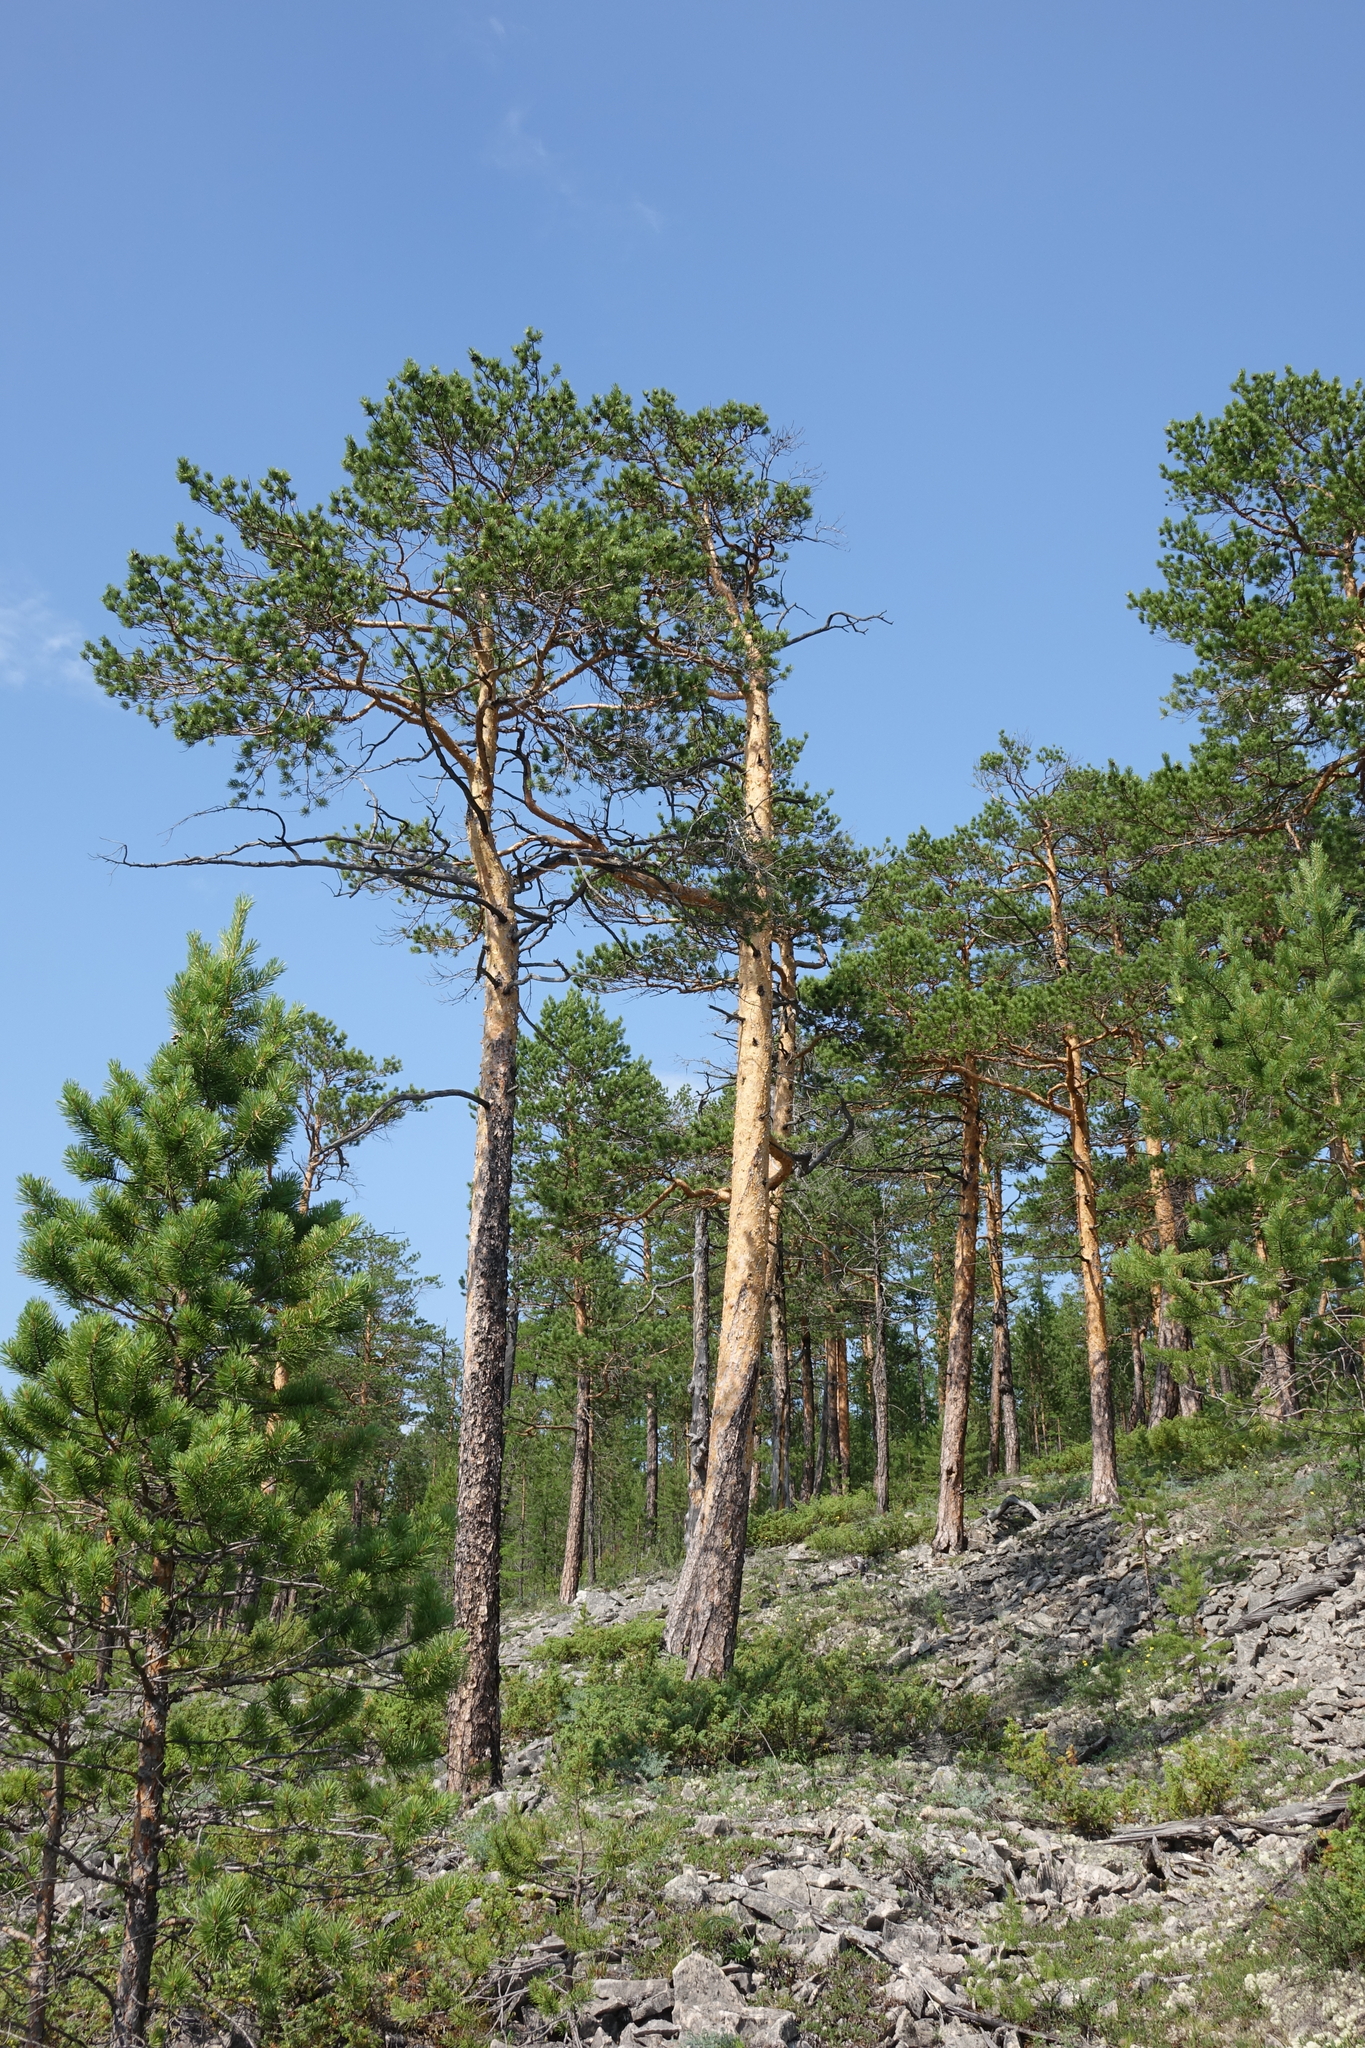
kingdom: Plantae
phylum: Tracheophyta
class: Pinopsida
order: Pinales
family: Pinaceae
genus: Pinus
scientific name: Pinus sylvestris
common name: Scots pine
